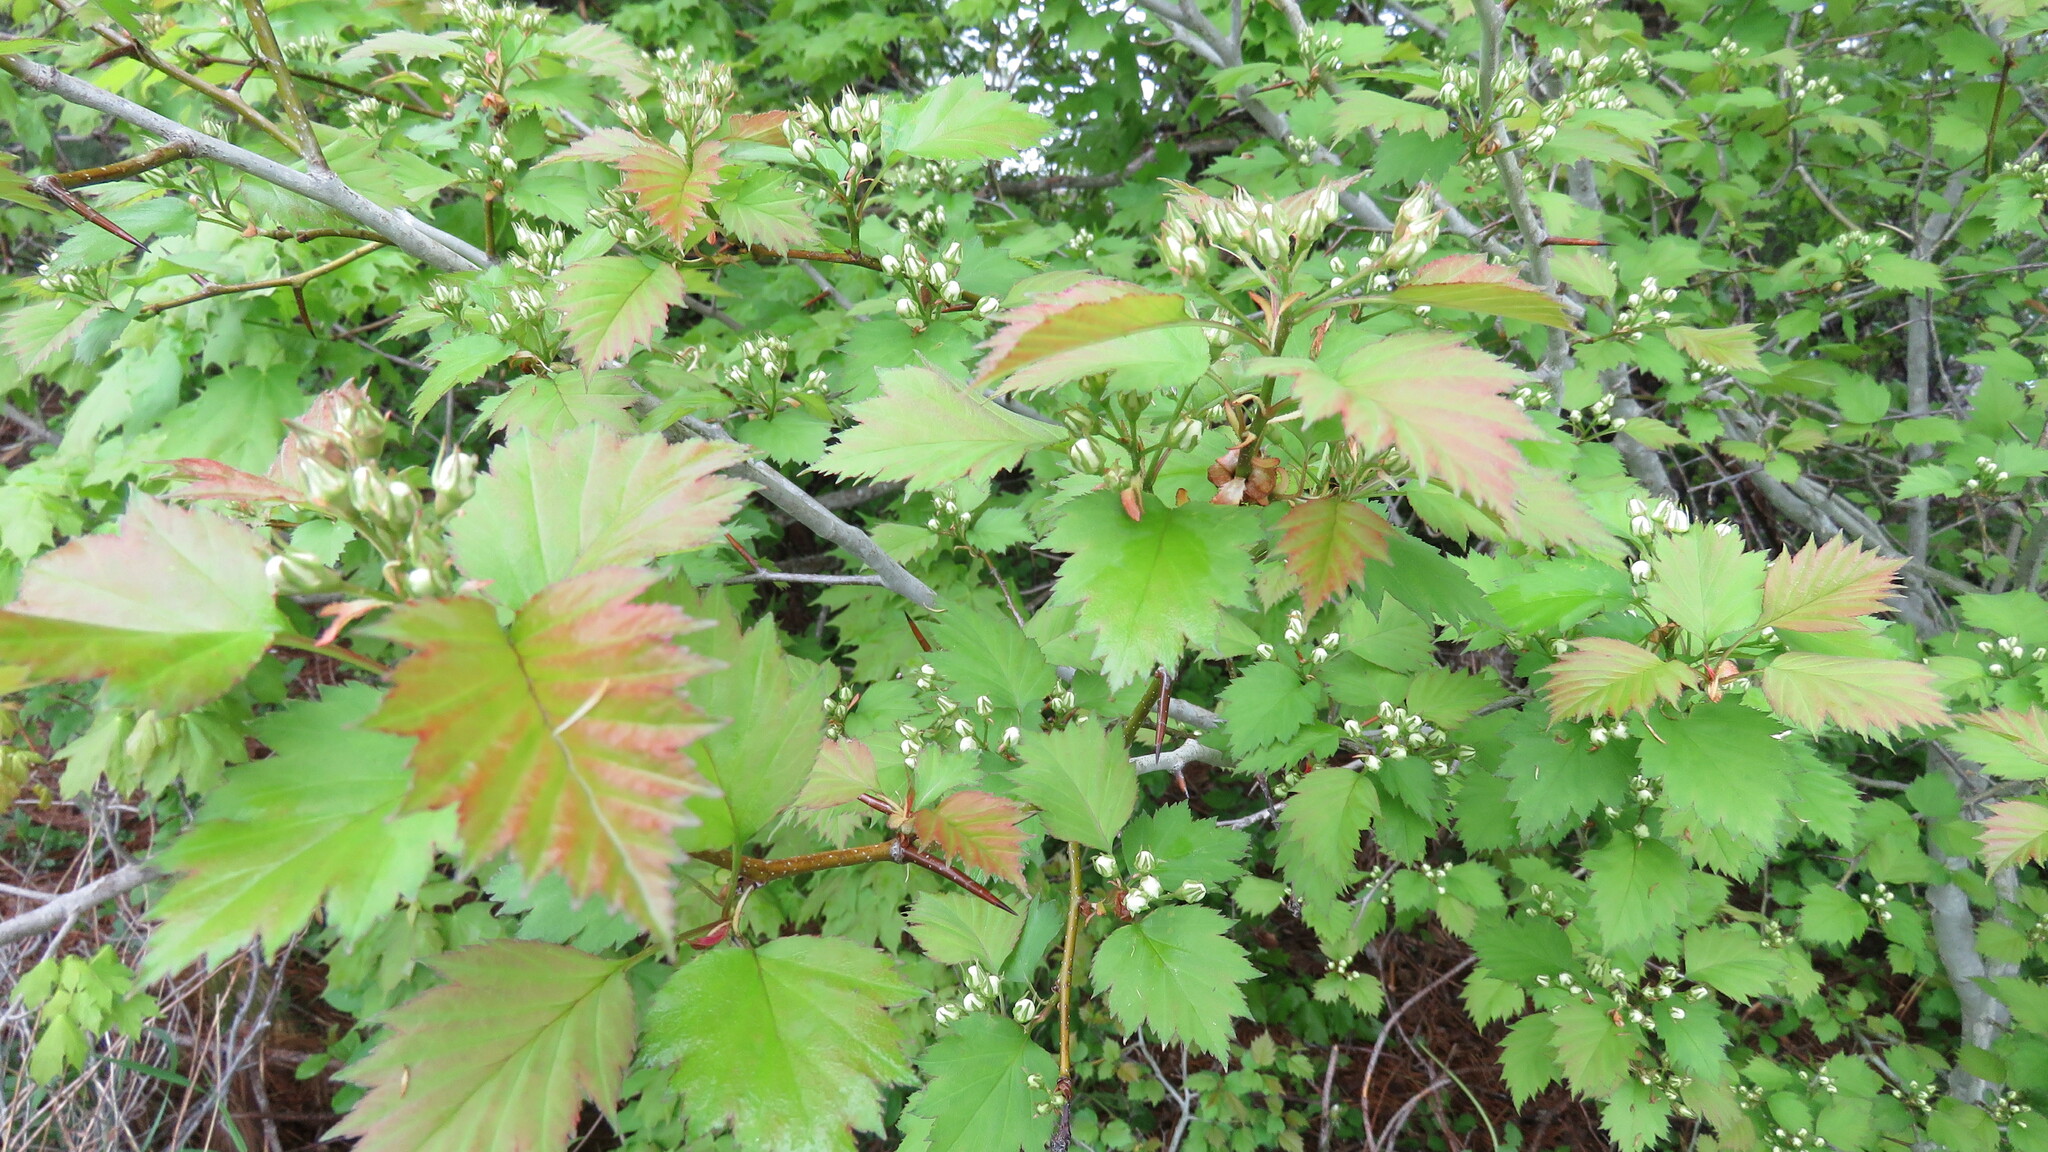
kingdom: Plantae
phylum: Tracheophyta
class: Magnoliopsida
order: Rosales
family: Rosaceae
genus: Crataegus
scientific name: Crataegus chrysocarpa
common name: Fire-berry hawthorn
